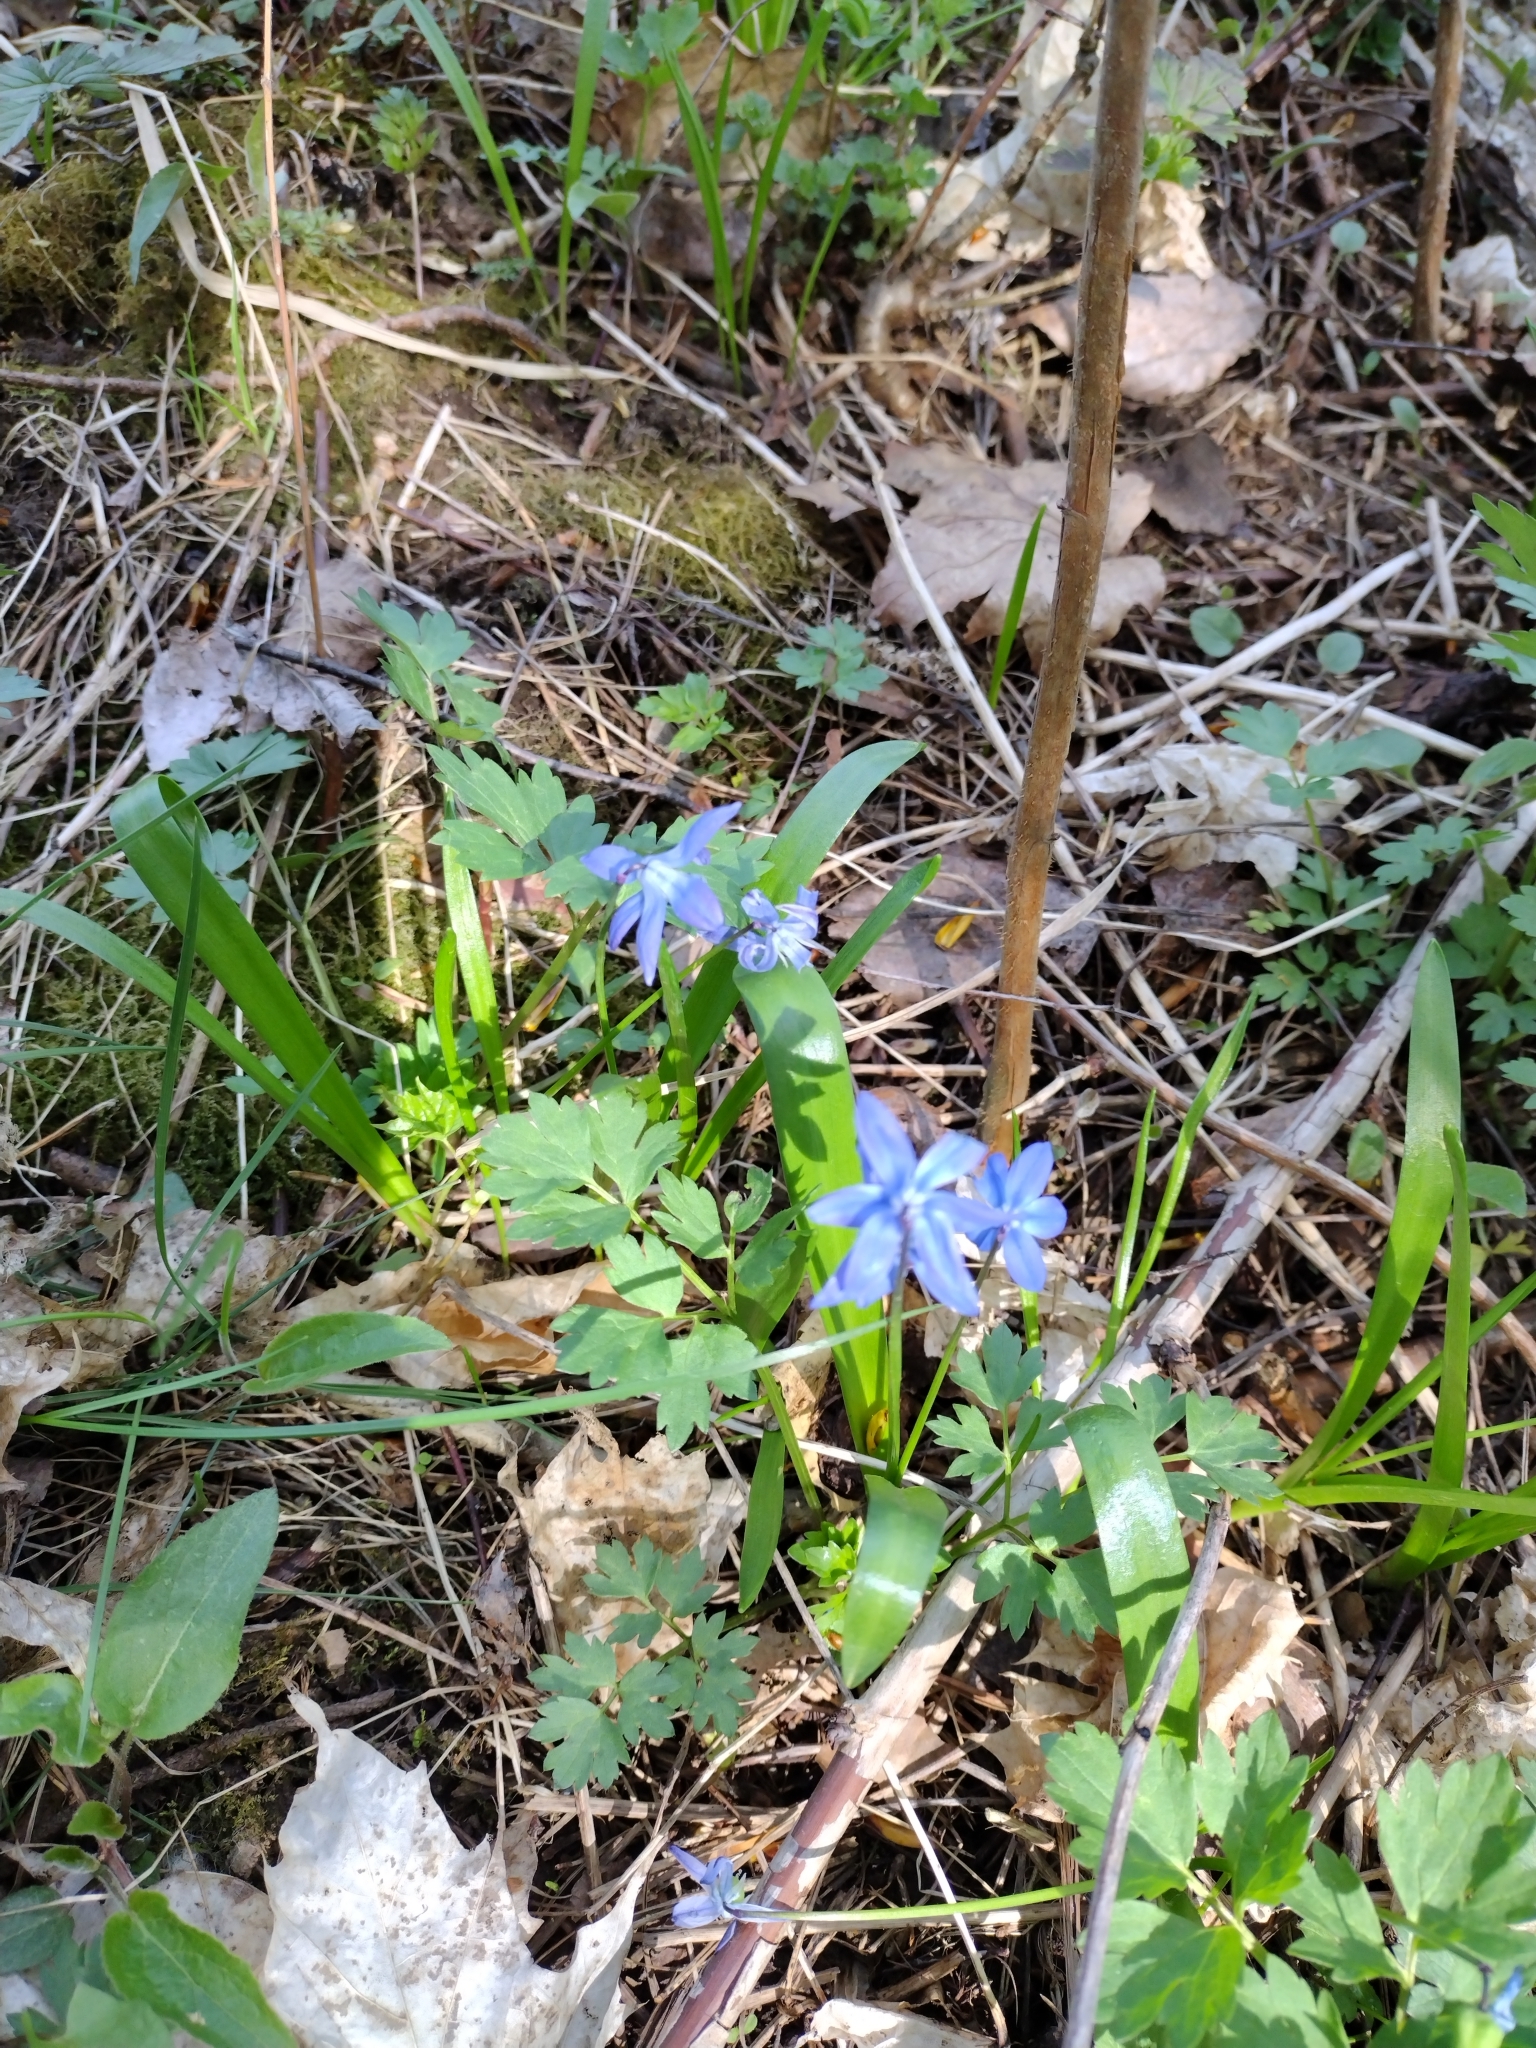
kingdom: Plantae
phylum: Tracheophyta
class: Liliopsida
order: Asparagales
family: Asparagaceae
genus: Scilla
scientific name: Scilla siberica
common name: Siberian squill
